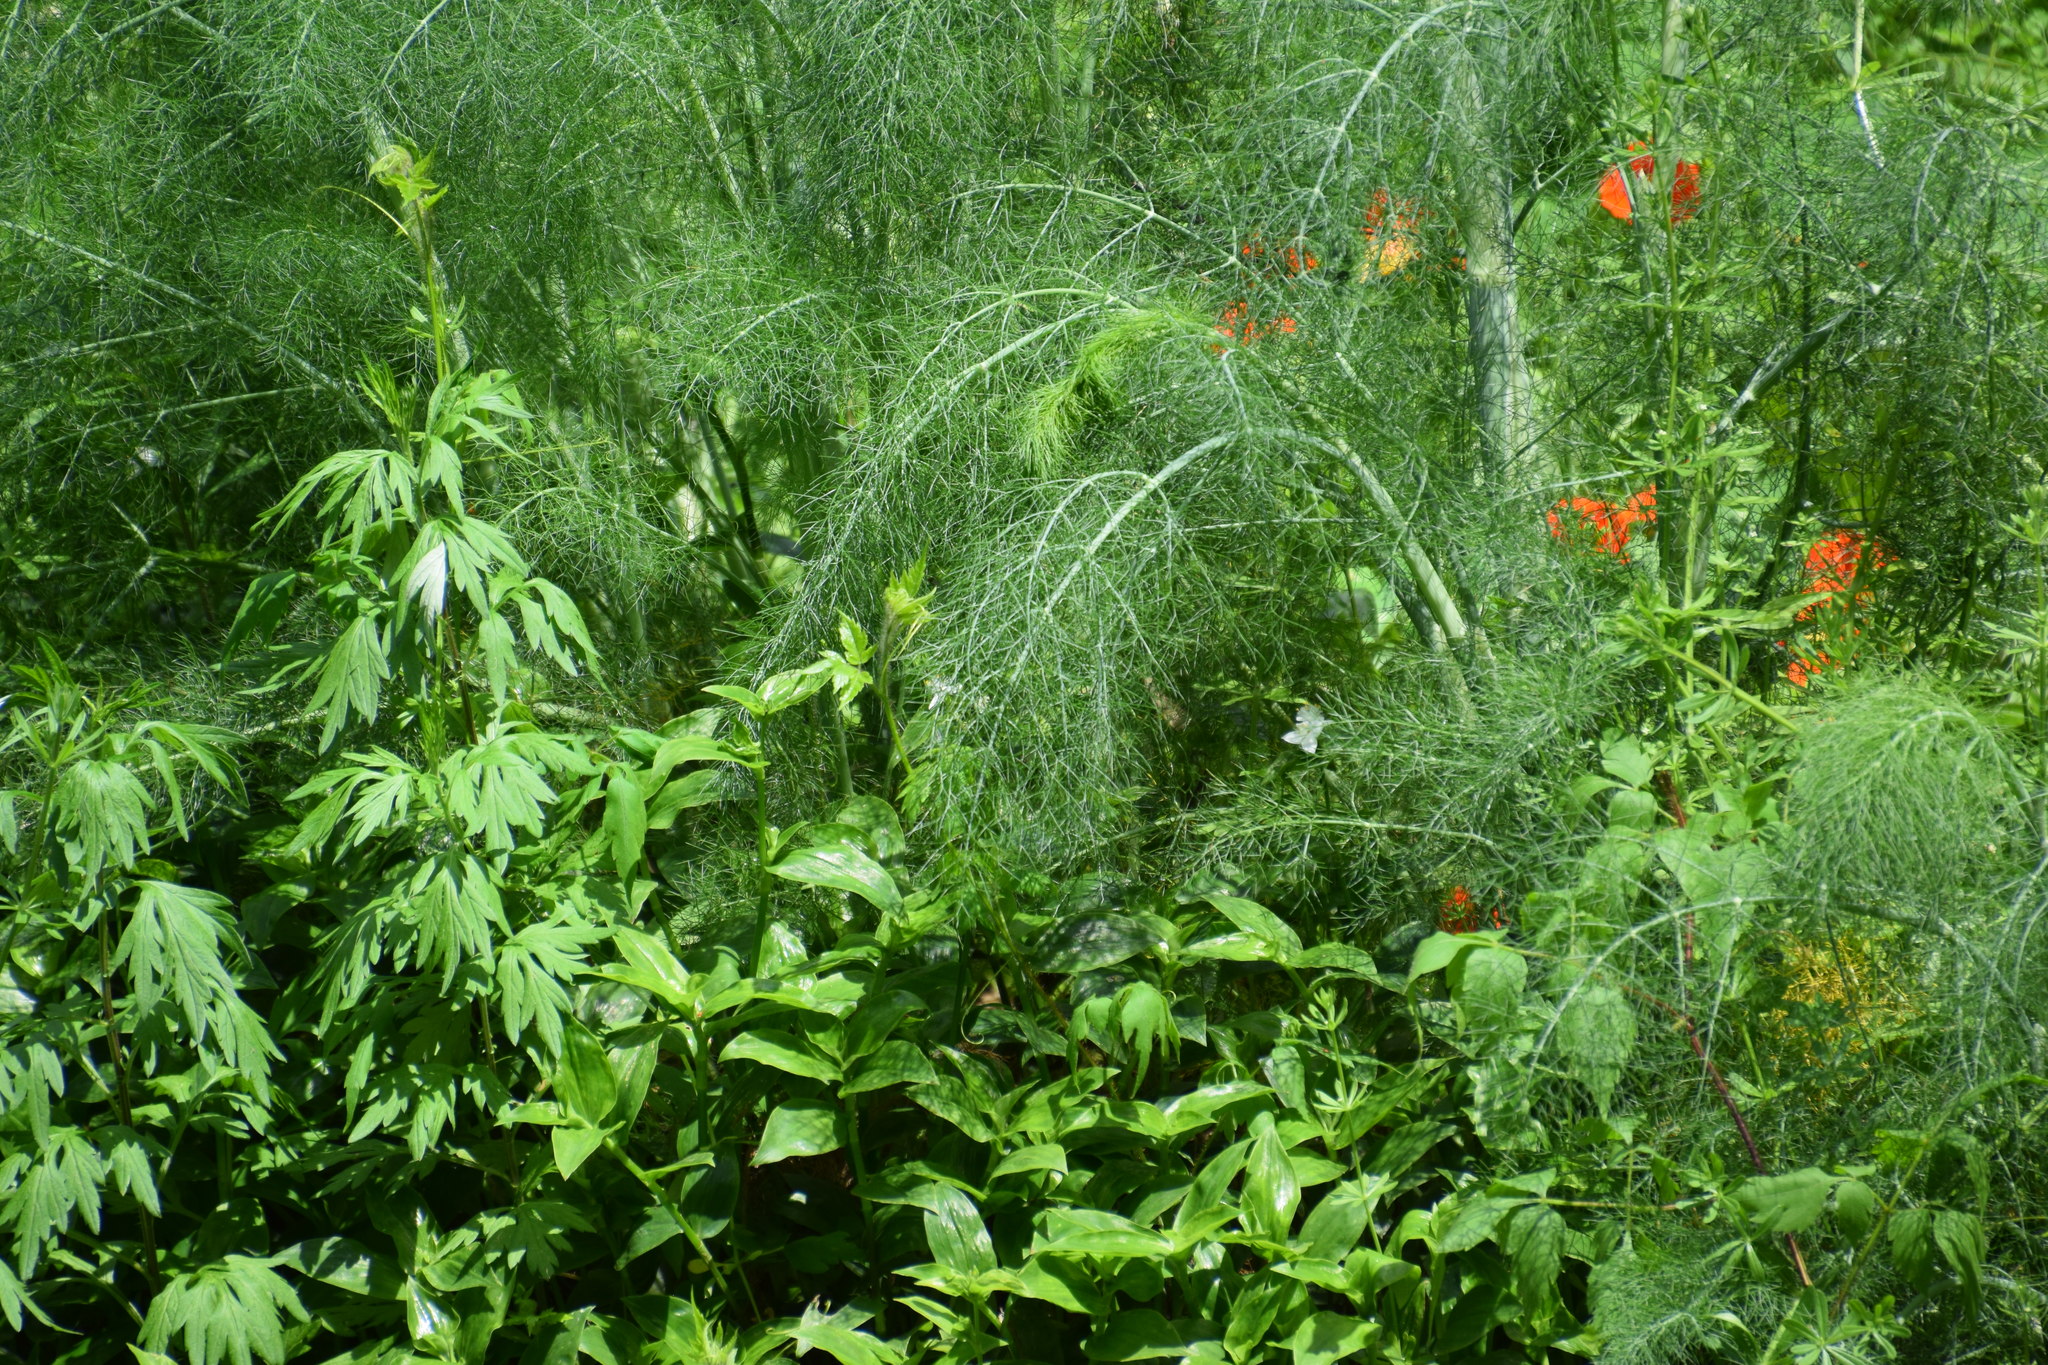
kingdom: Plantae
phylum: Tracheophyta
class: Magnoliopsida
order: Apiales
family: Apiaceae
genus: Foeniculum
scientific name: Foeniculum vulgare
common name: Fennel
